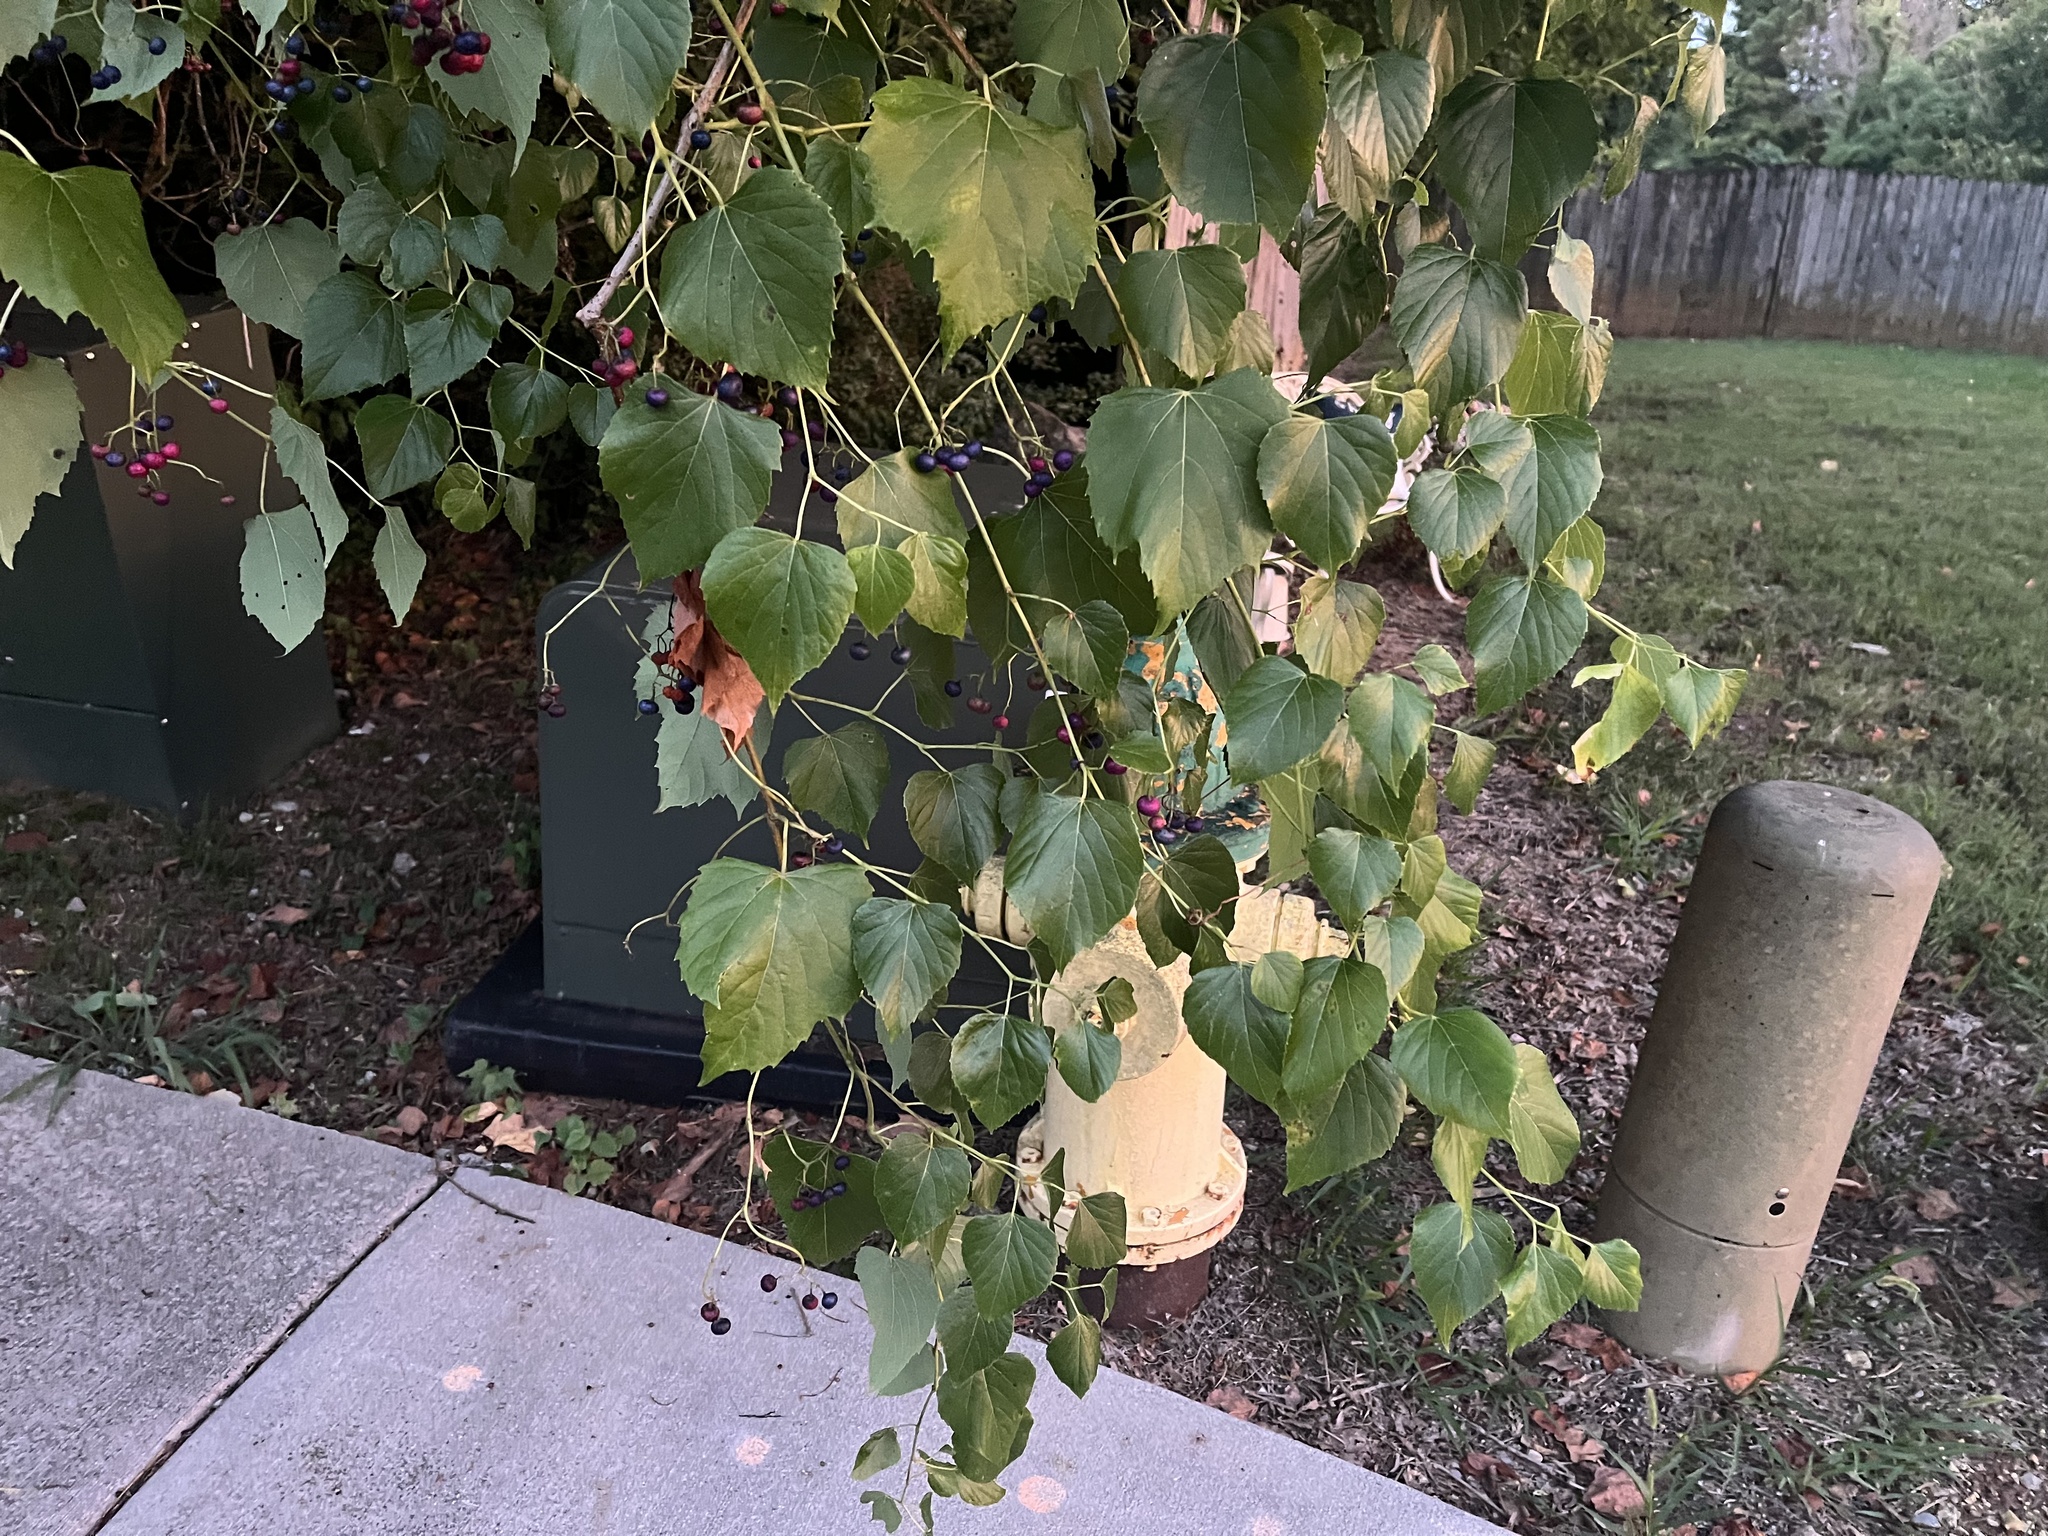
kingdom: Plantae
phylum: Tracheophyta
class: Magnoliopsida
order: Vitales
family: Vitaceae
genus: Ampelopsis
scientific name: Ampelopsis cordata
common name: Heart-leaf ampelopsis
